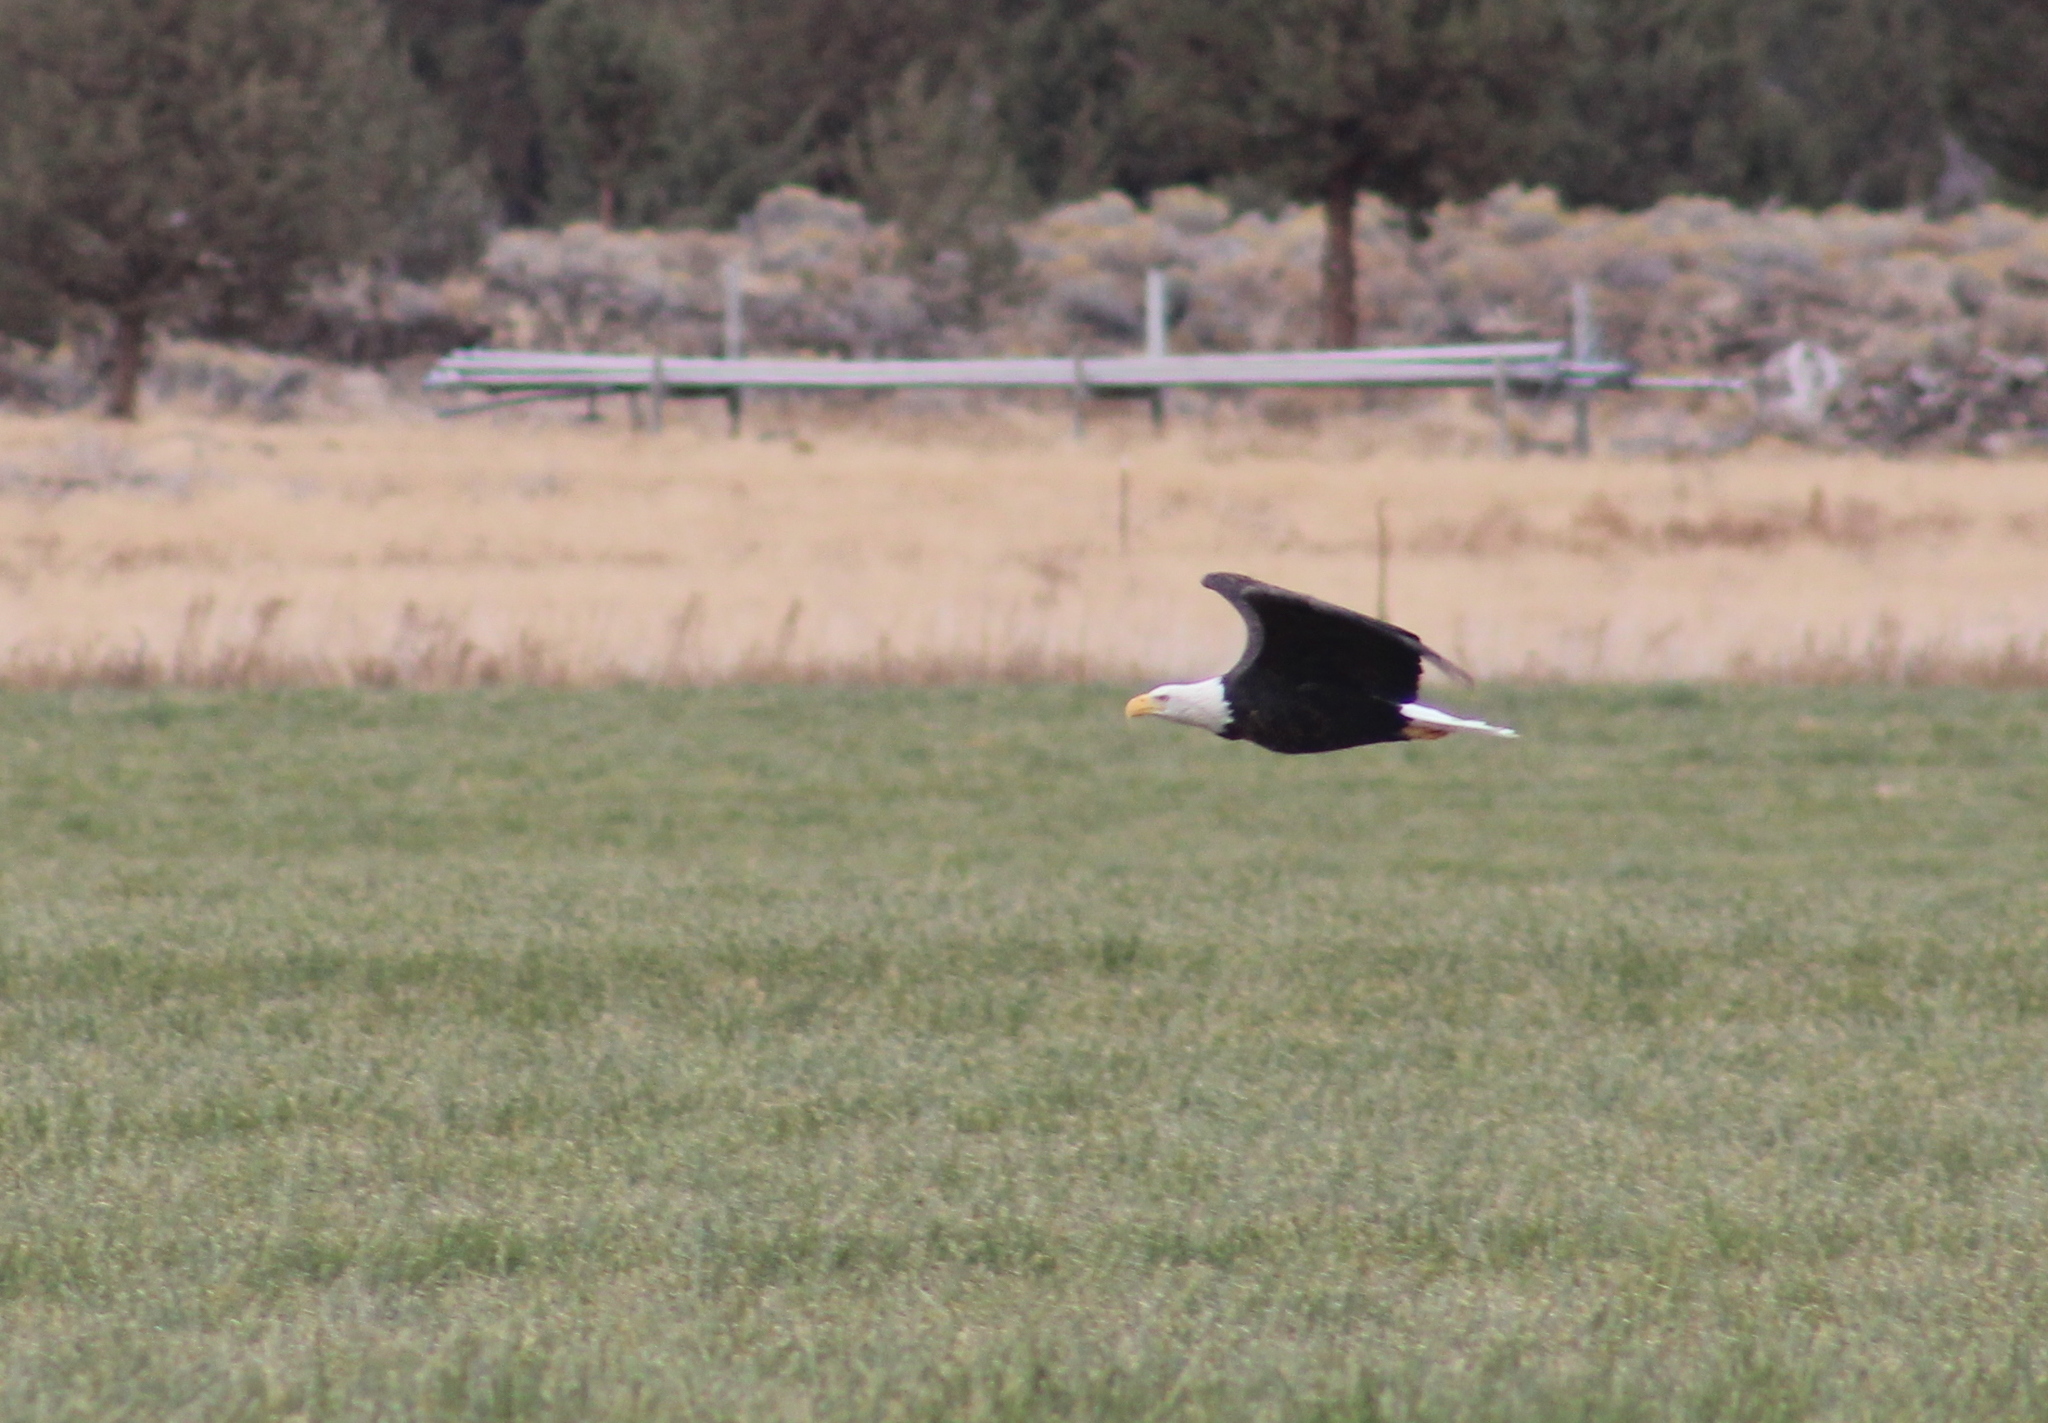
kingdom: Animalia
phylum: Chordata
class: Aves
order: Accipitriformes
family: Accipitridae
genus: Haliaeetus
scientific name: Haliaeetus leucocephalus
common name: Bald eagle
